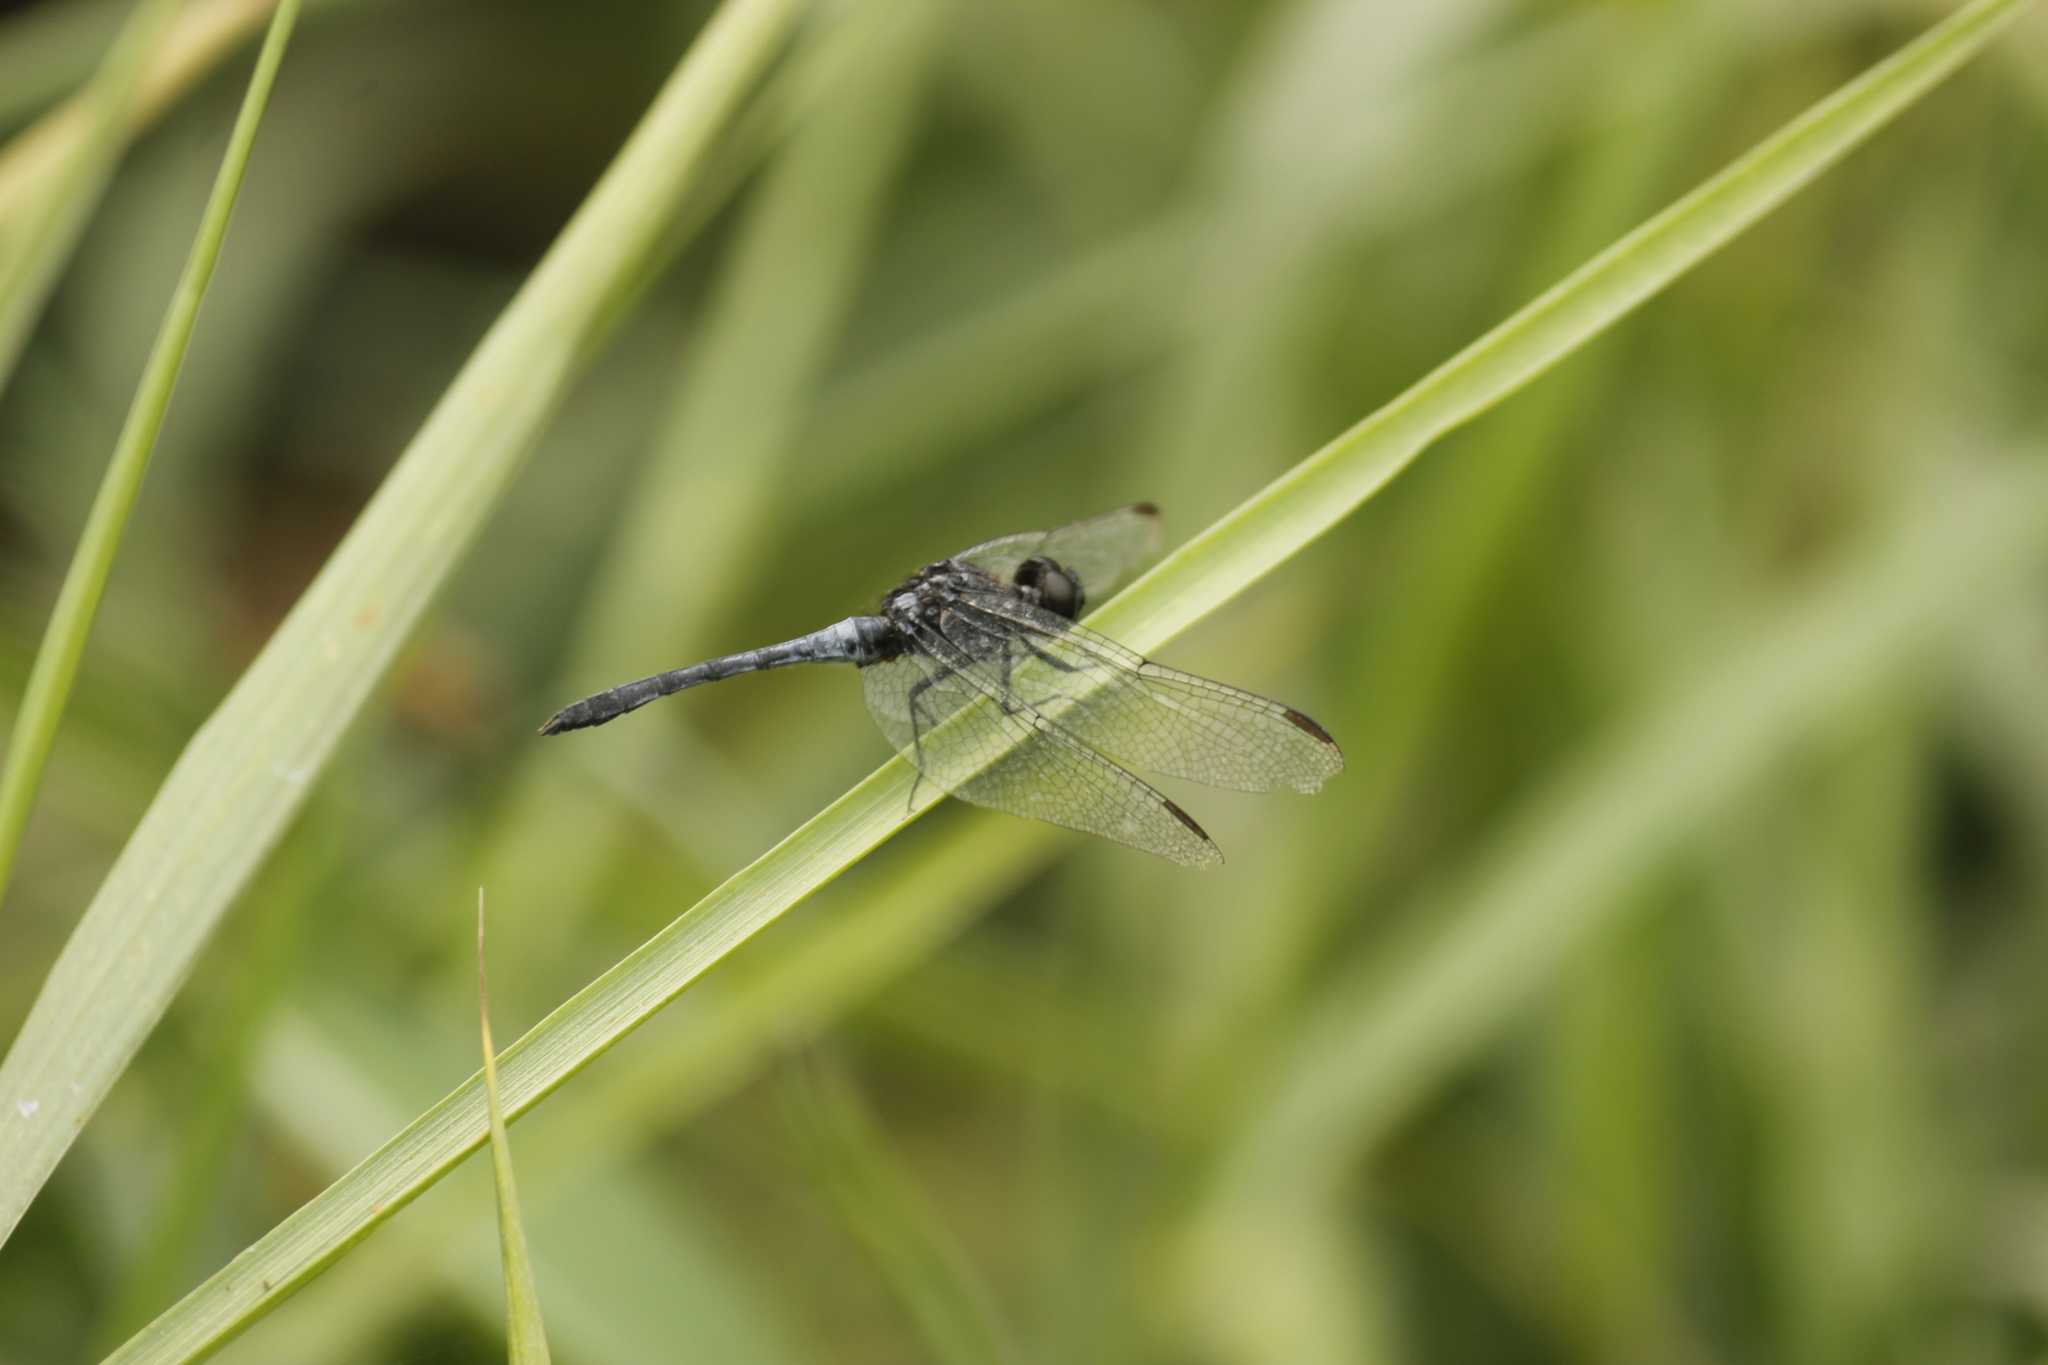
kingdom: Animalia
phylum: Arthropoda
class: Insecta
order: Odonata
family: Libellulidae
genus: Erythrodiplax
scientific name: Erythrodiplax cleopatra
